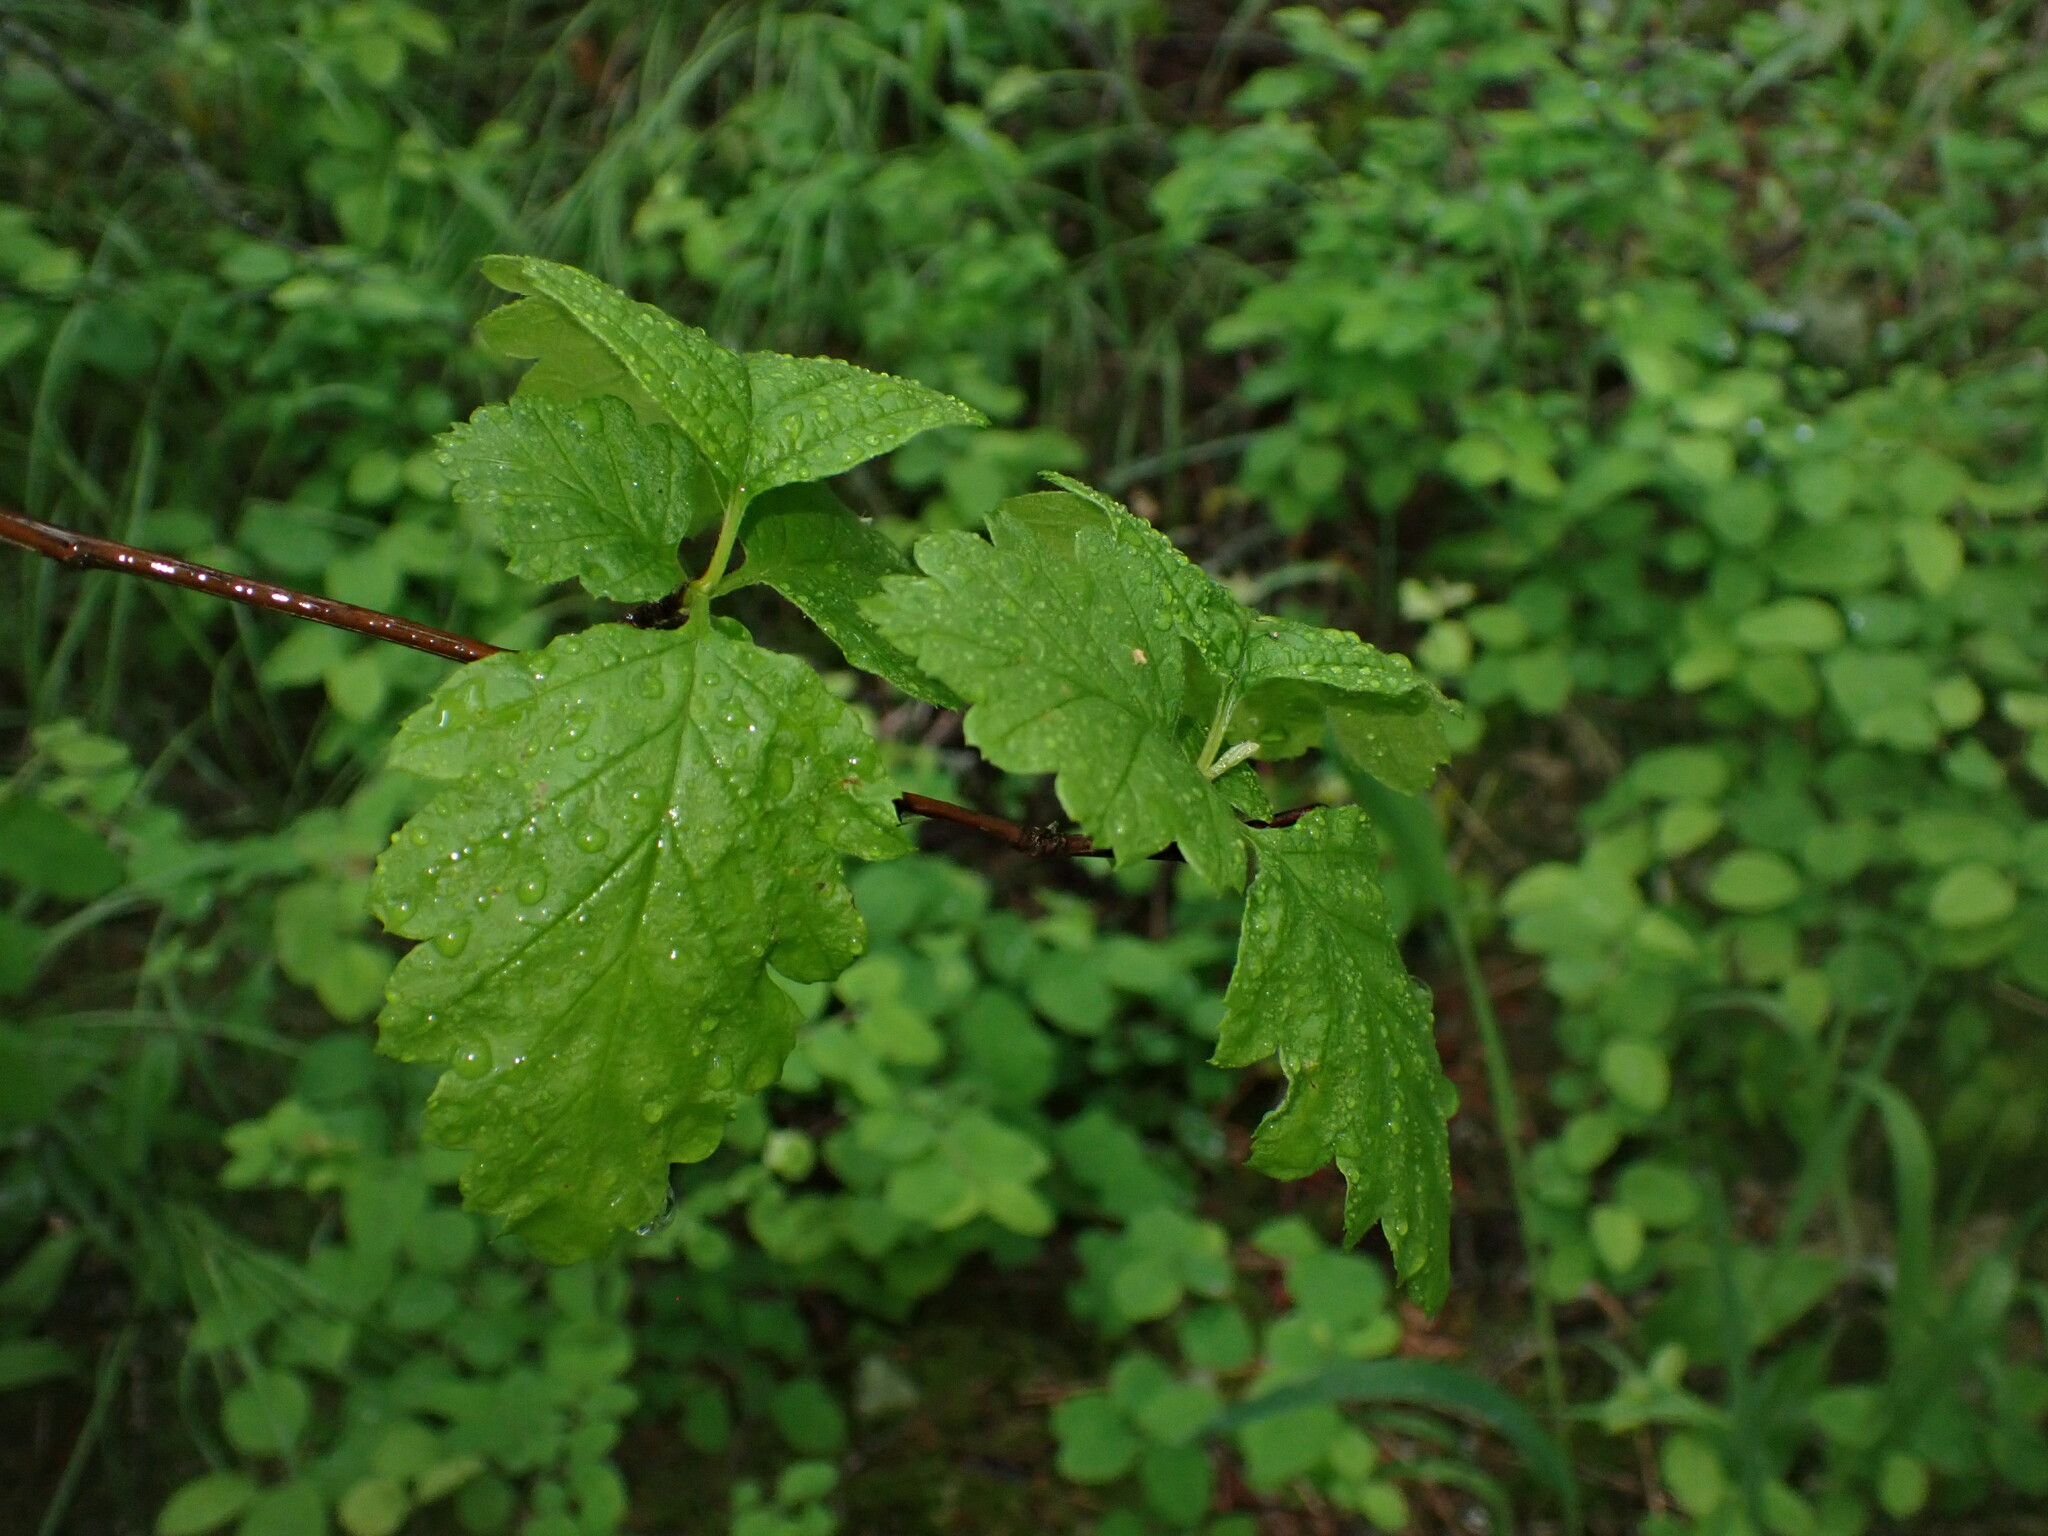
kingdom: Plantae
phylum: Tracheophyta
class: Magnoliopsida
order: Rosales
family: Rosaceae
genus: Holodiscus
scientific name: Holodiscus discolor
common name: Oceanspray
